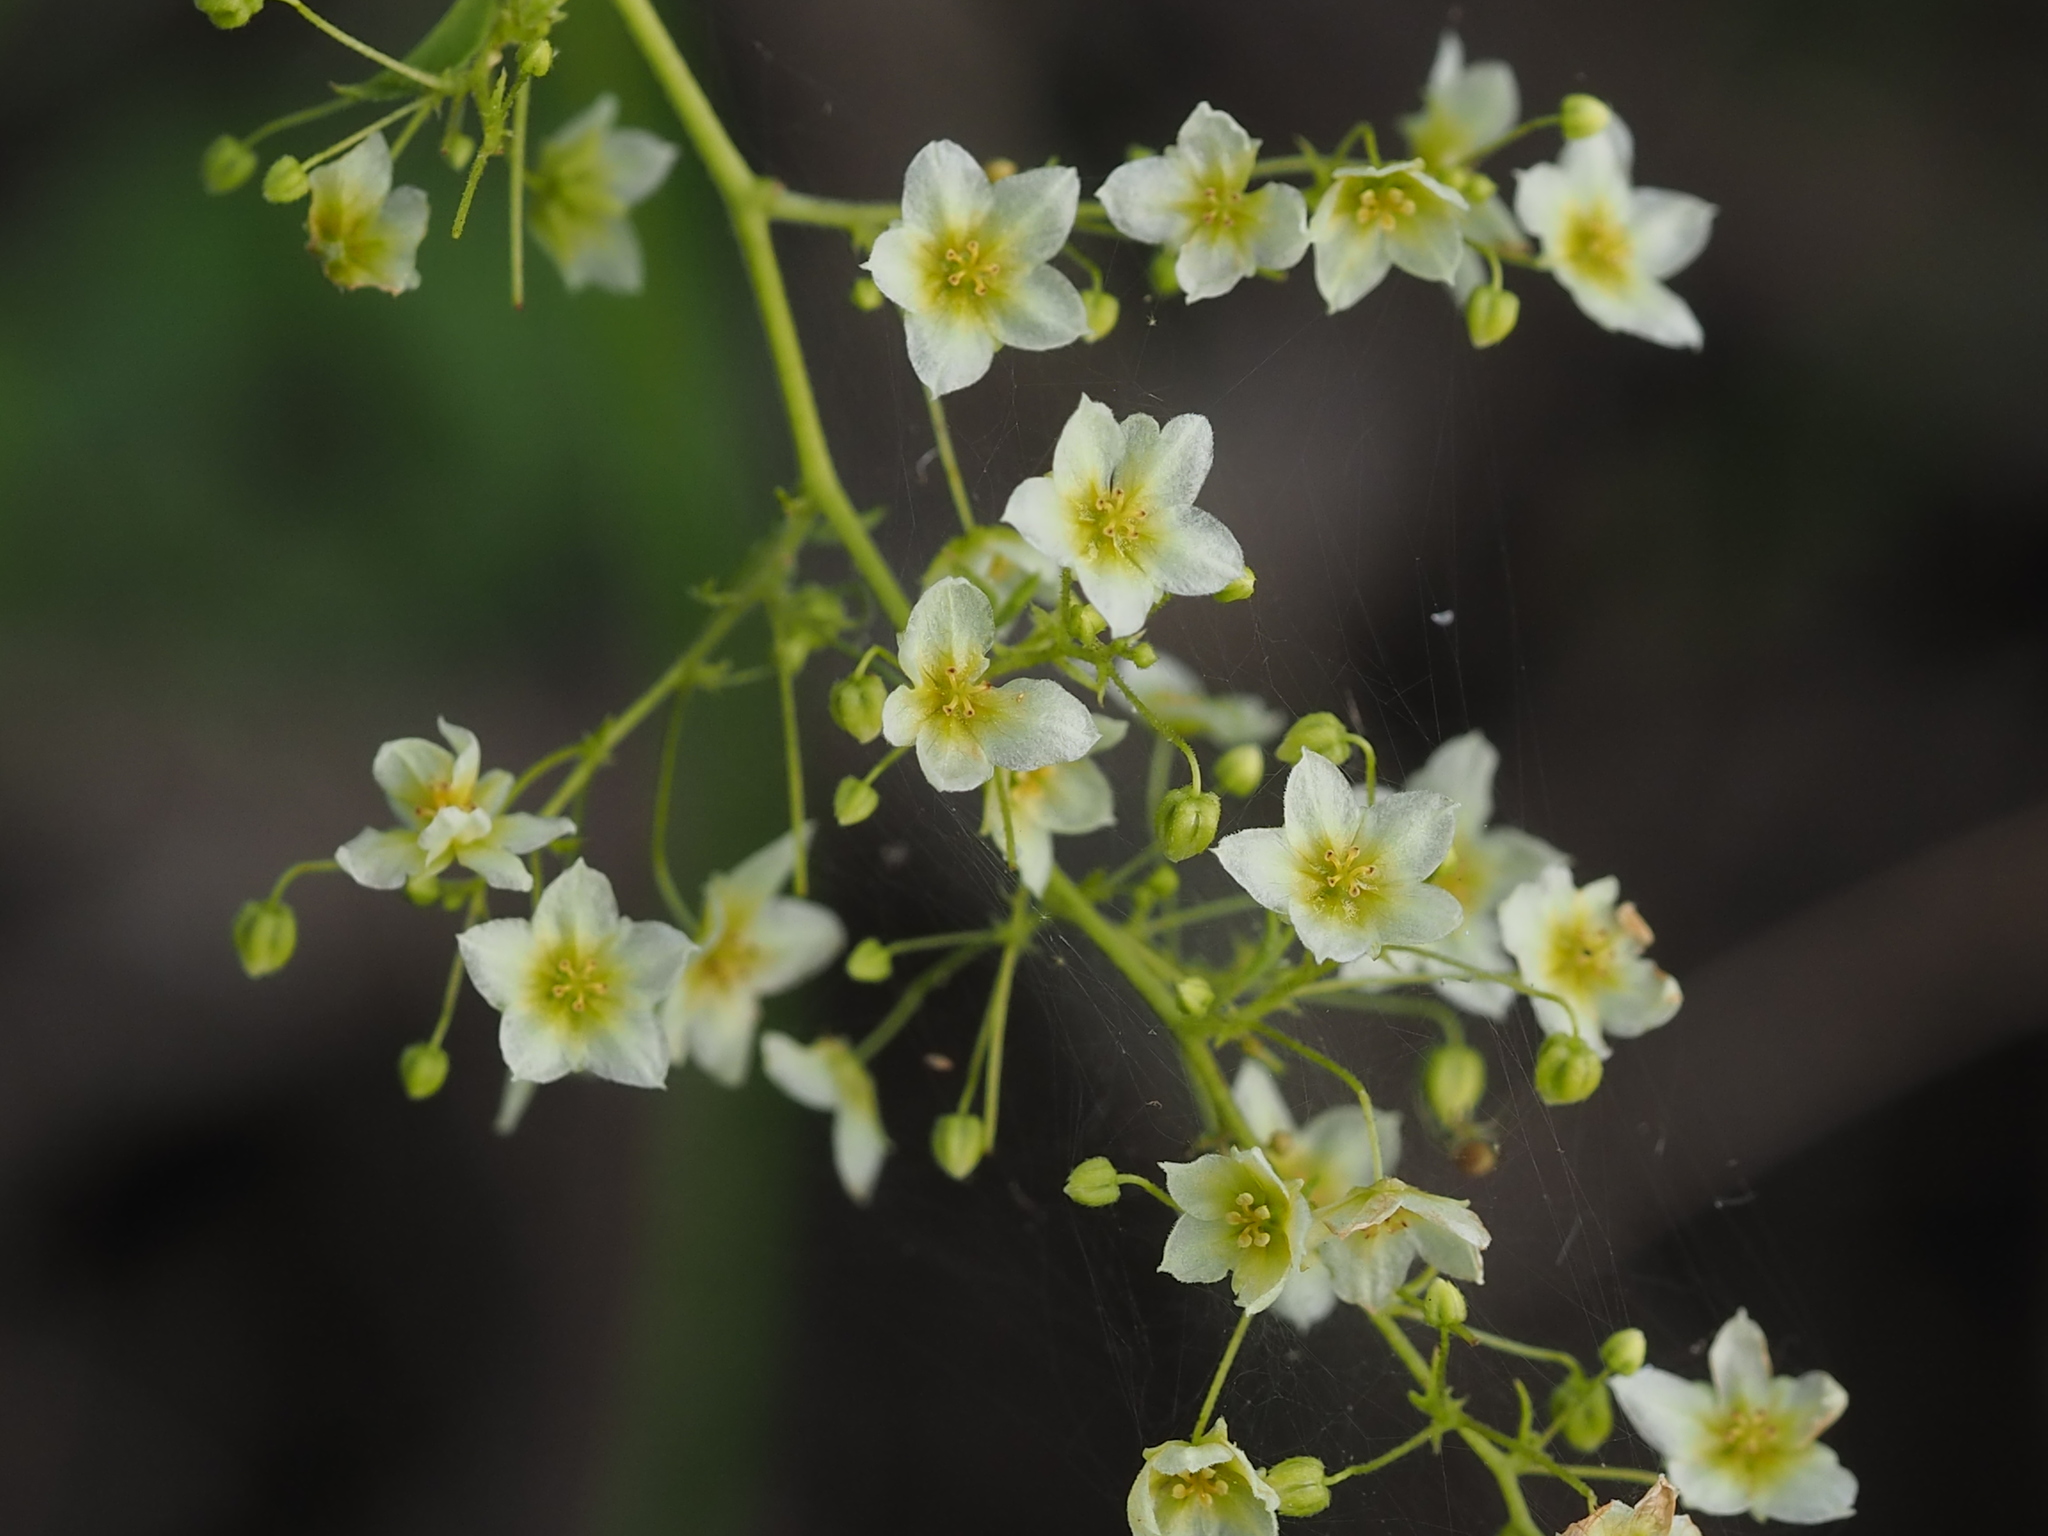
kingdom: Plantae
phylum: Tracheophyta
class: Magnoliopsida
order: Cucurbitales
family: Cucurbitaceae
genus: Neoalsomitra
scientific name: Neoalsomitra clavigera
